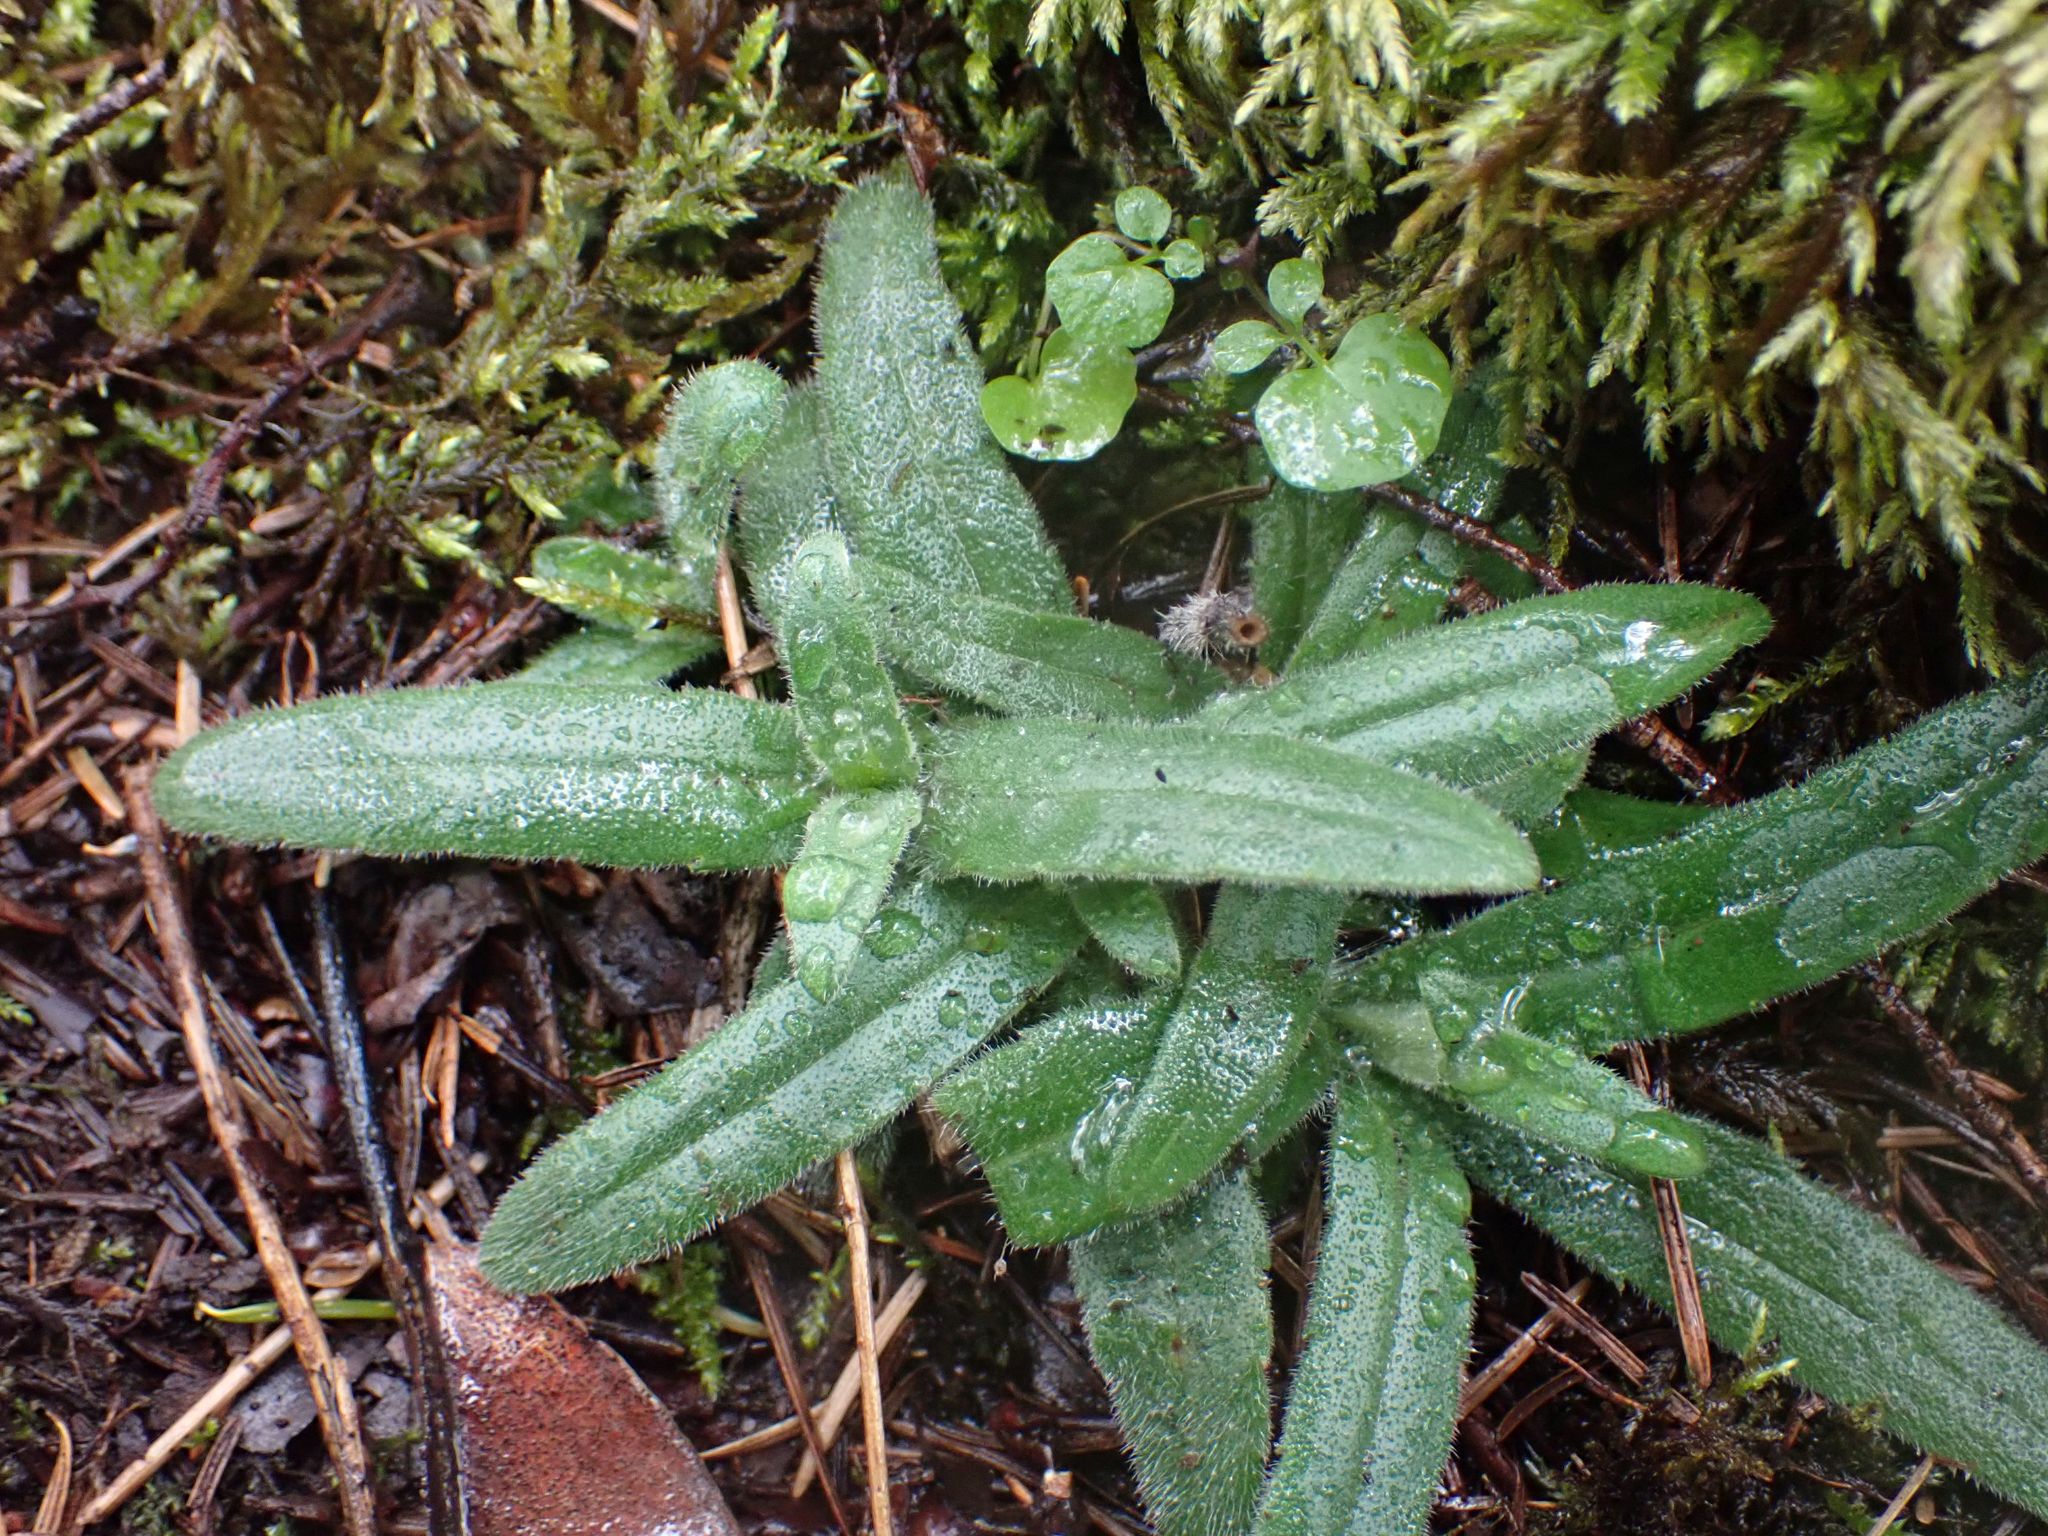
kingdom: Plantae
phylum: Tracheophyta
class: Magnoliopsida
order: Asterales
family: Asteraceae
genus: Anisocarpus
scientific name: Anisocarpus madioides
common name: Woodland madia
